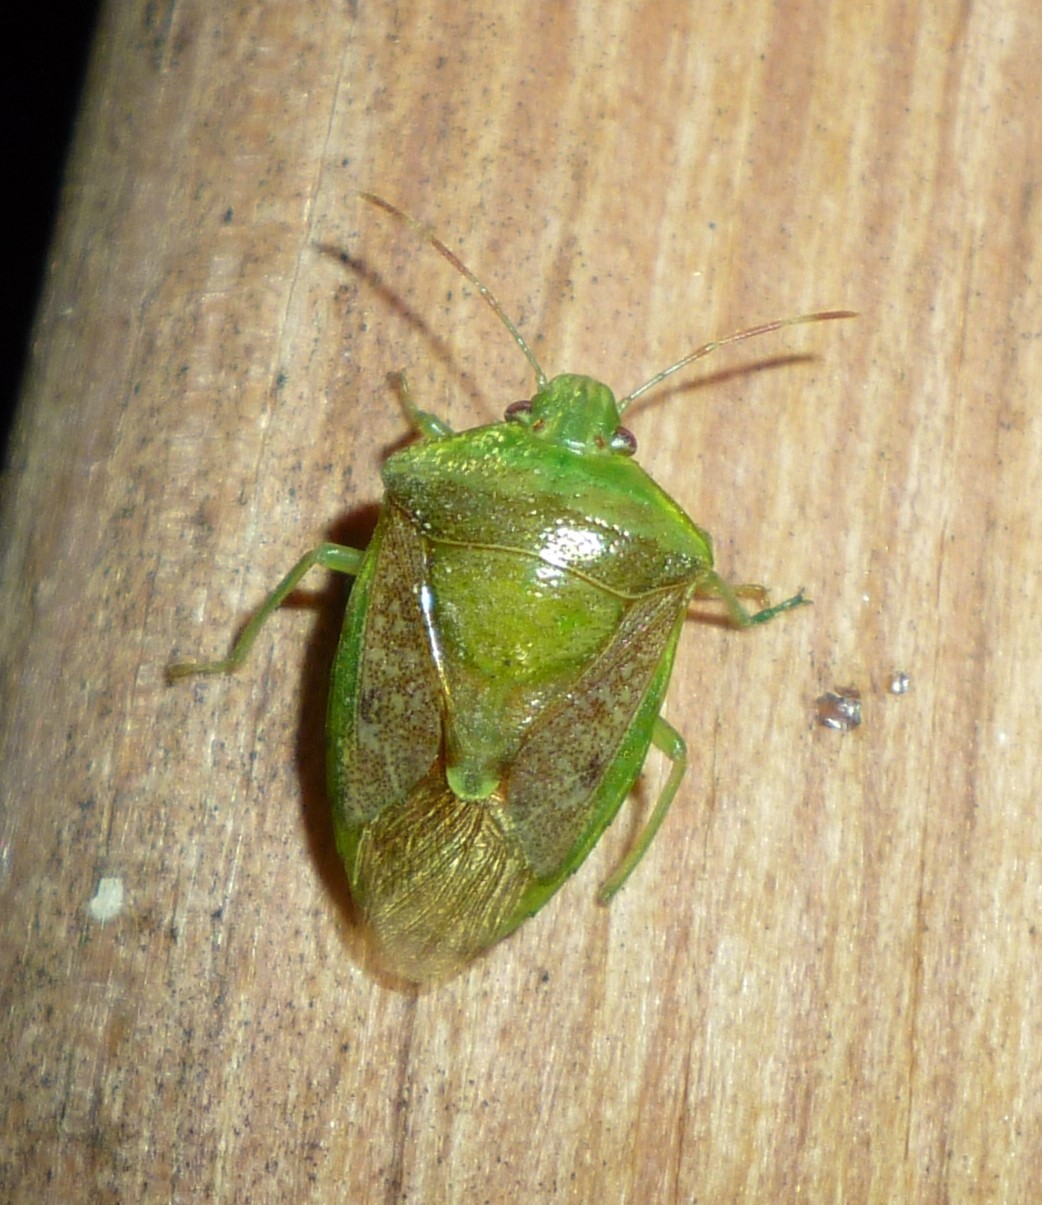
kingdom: Animalia
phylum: Arthropoda
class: Insecta
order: Hemiptera
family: Pentatomidae
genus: Banasa
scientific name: Banasa calva
